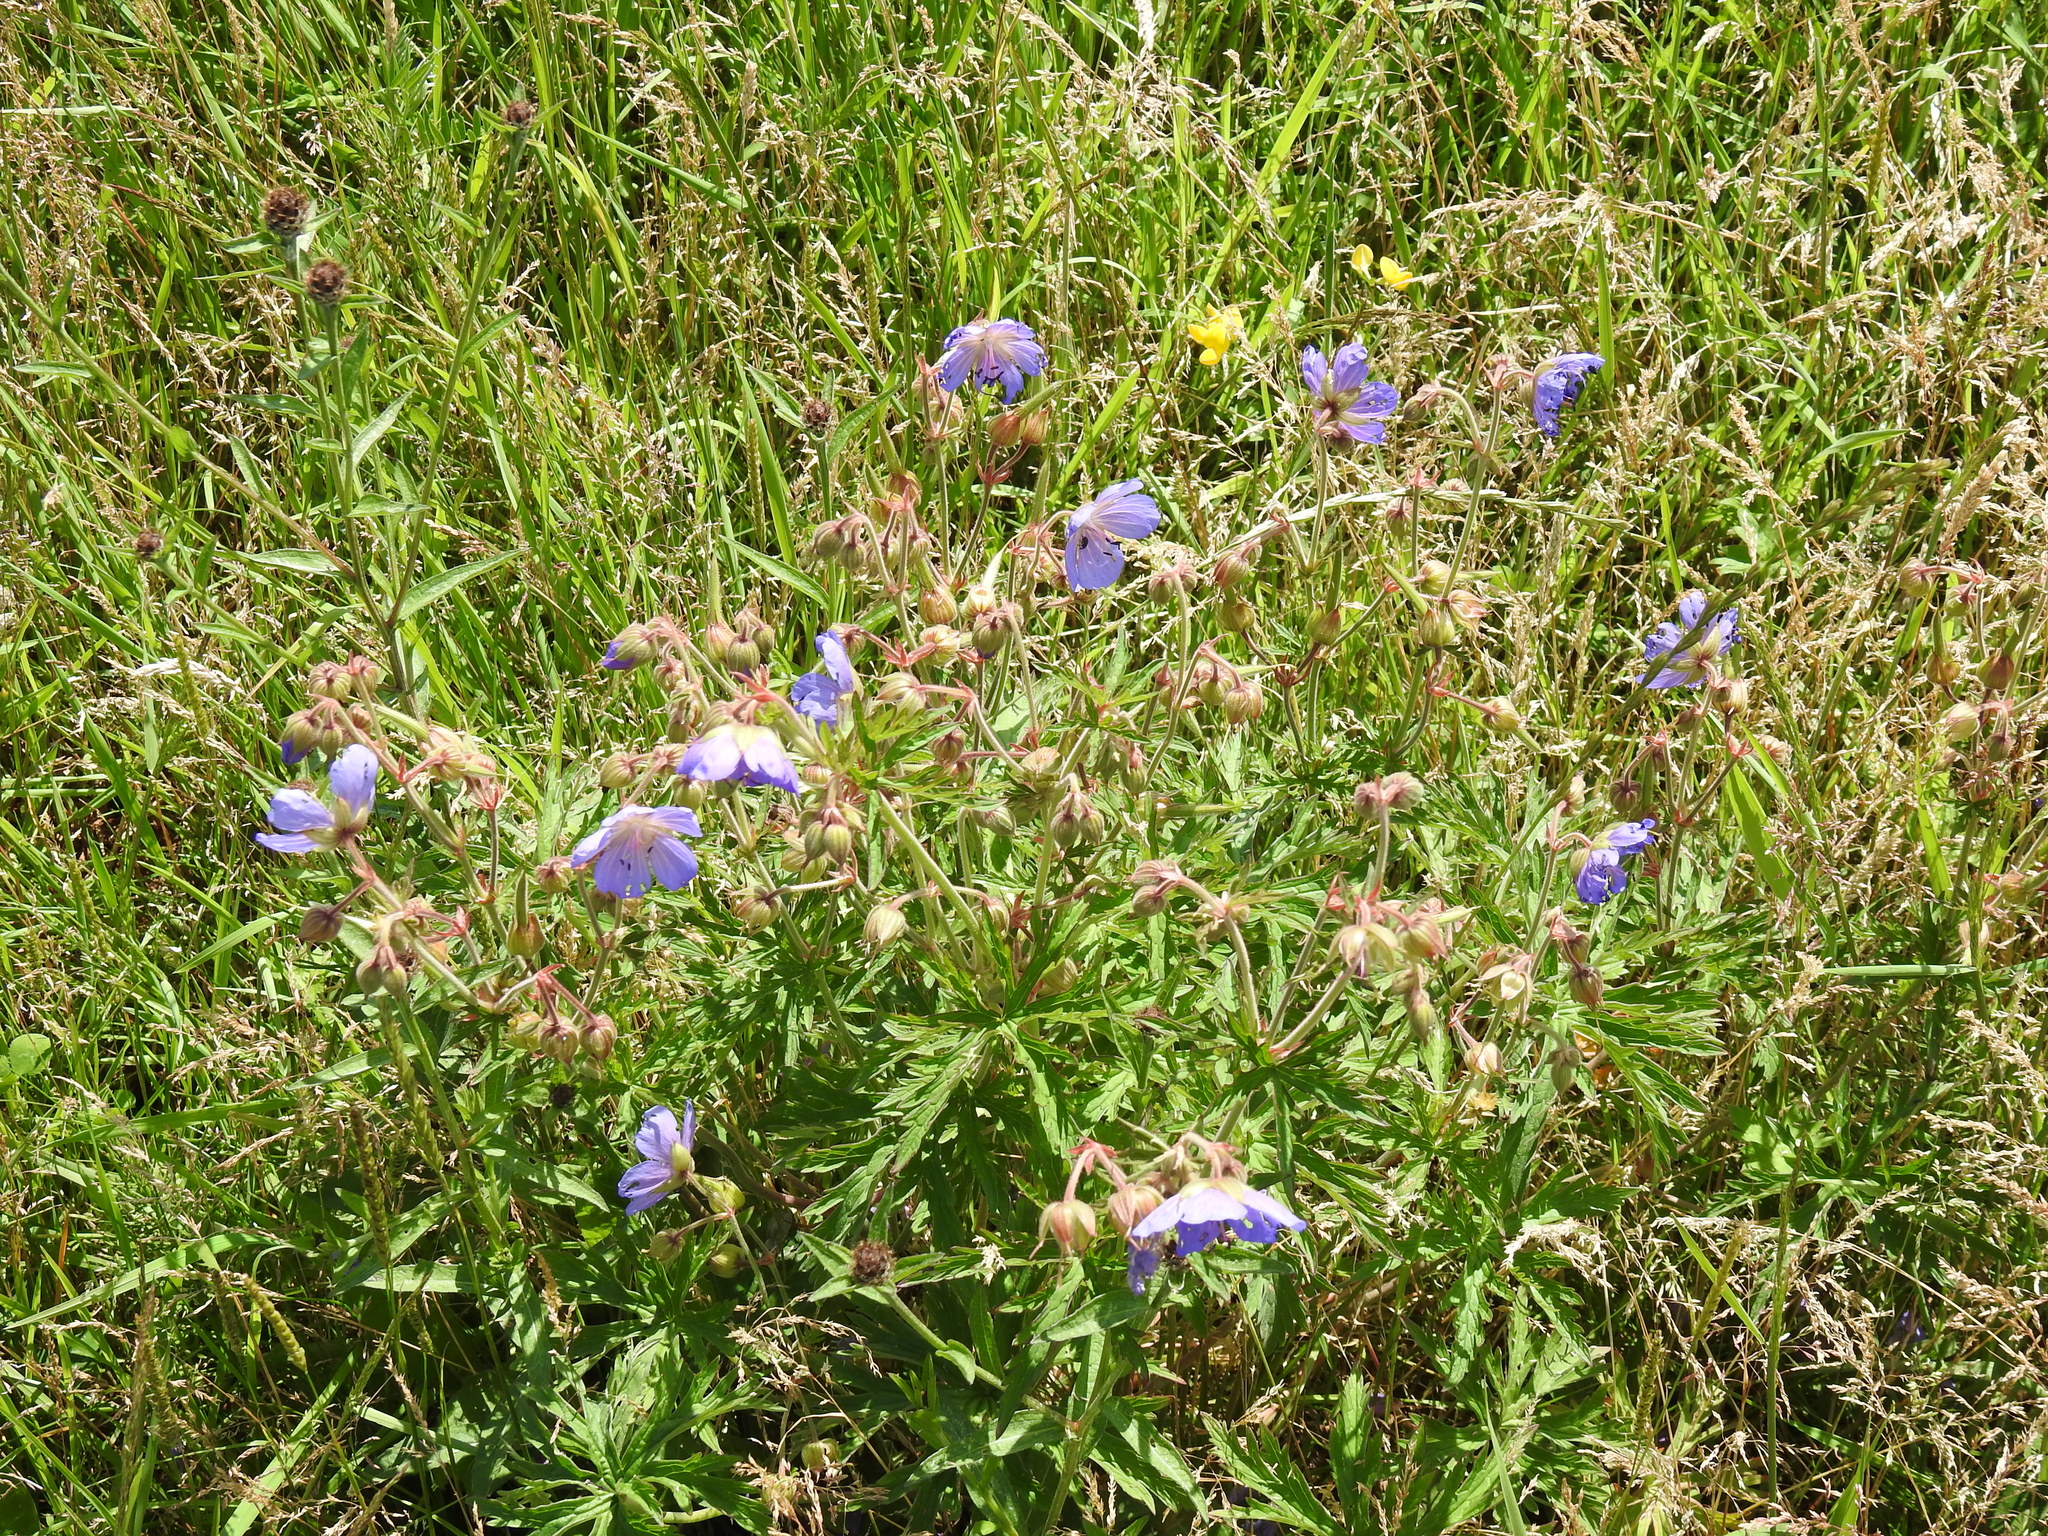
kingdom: Plantae
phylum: Tracheophyta
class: Magnoliopsida
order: Geraniales
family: Geraniaceae
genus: Geranium
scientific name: Geranium pratense
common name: Meadow crane's-bill
